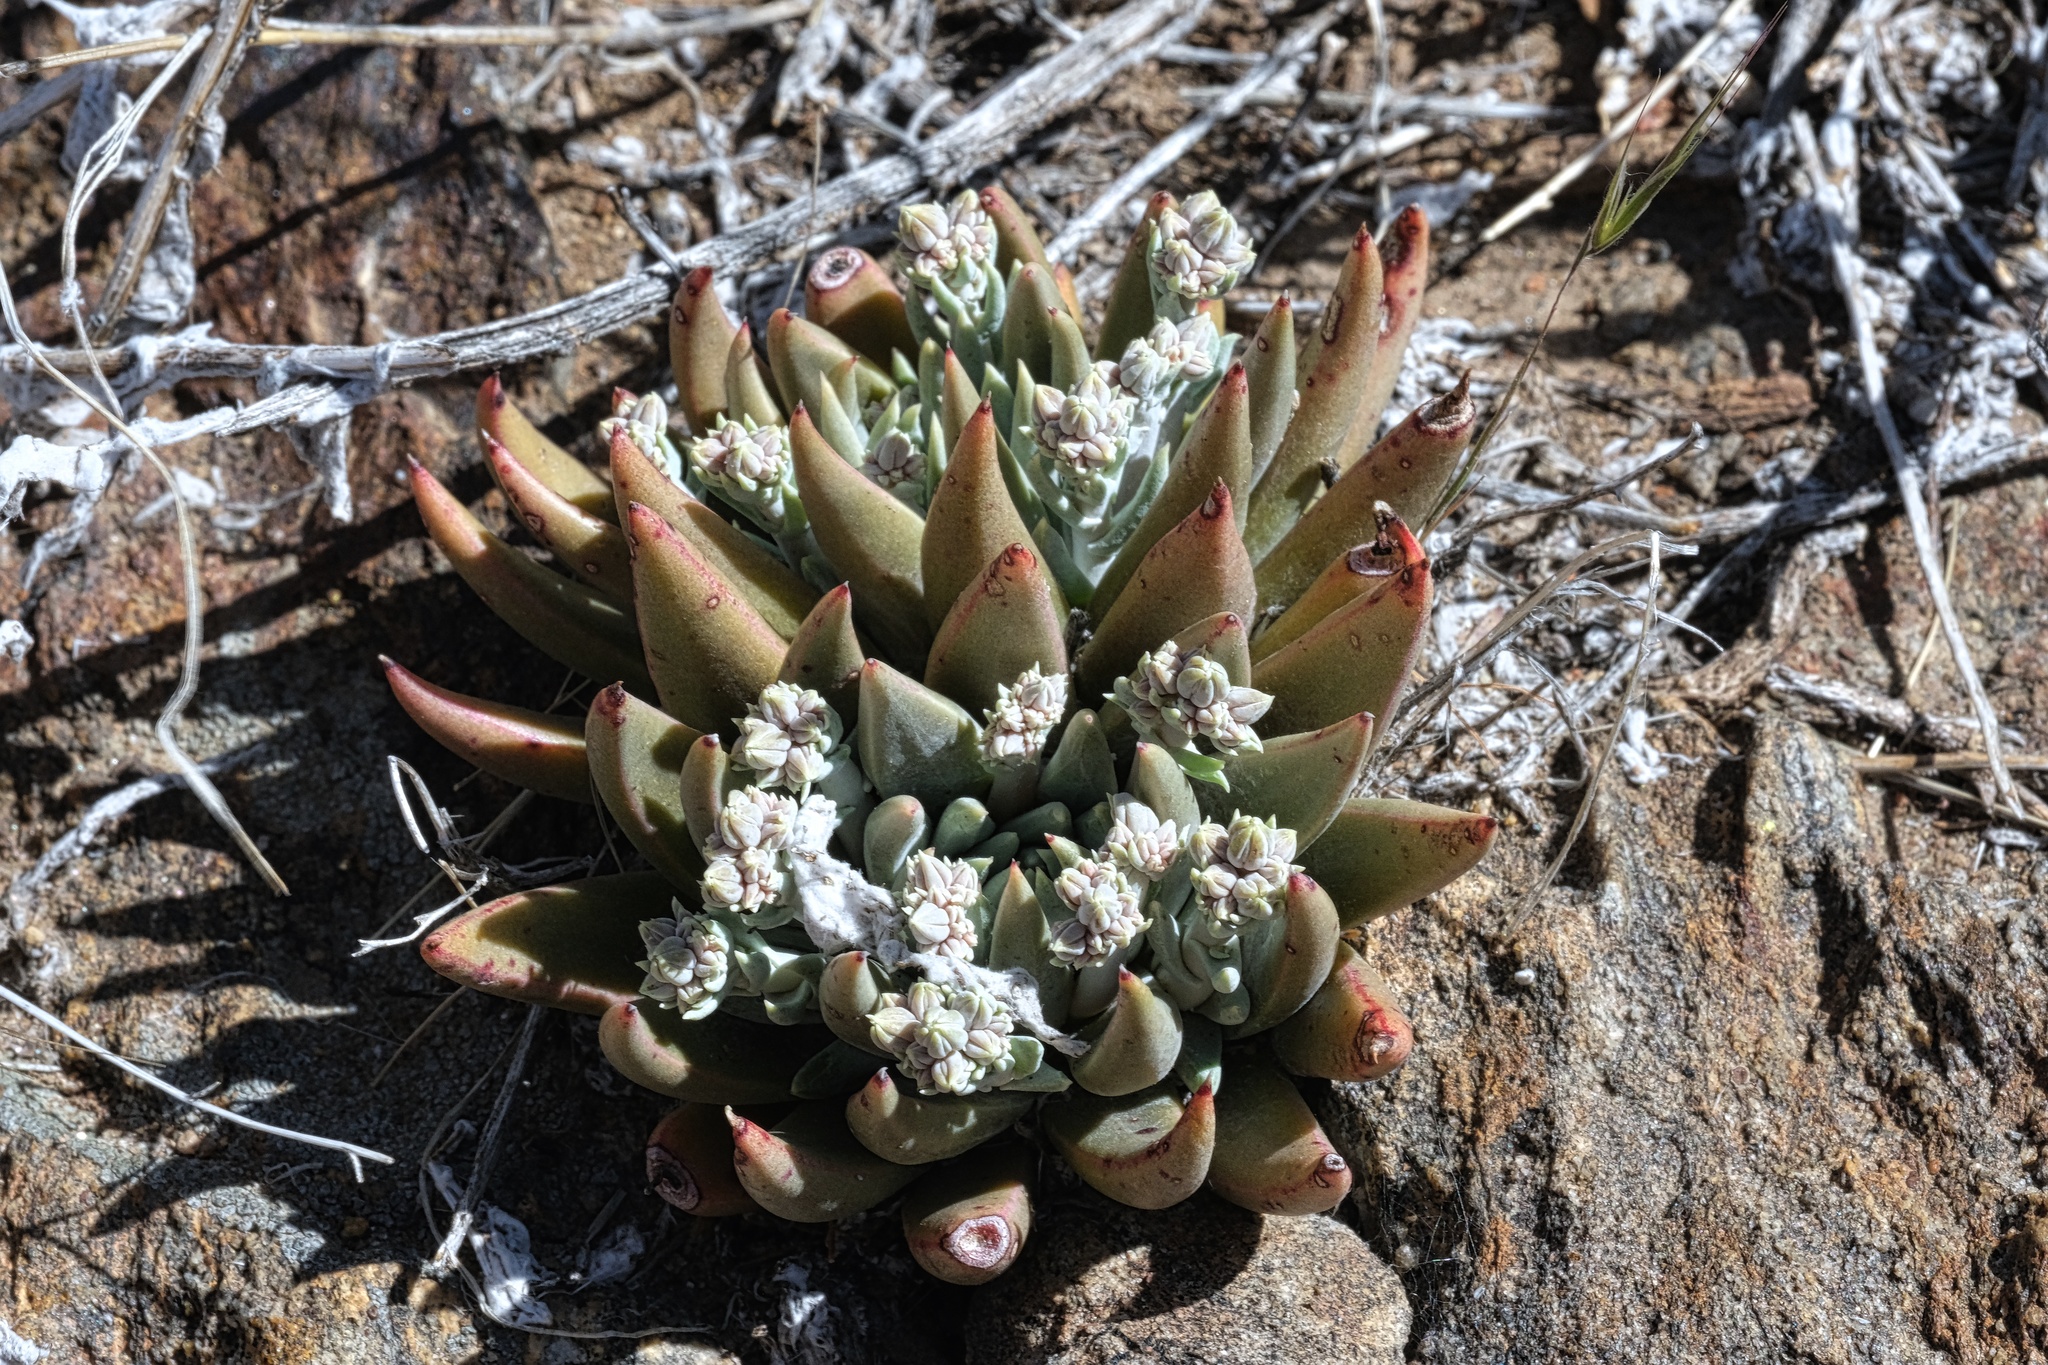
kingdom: Plantae
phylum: Tracheophyta
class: Magnoliopsida
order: Saxifragales
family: Crassulaceae
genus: Dudleya
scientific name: Dudleya abramsii
